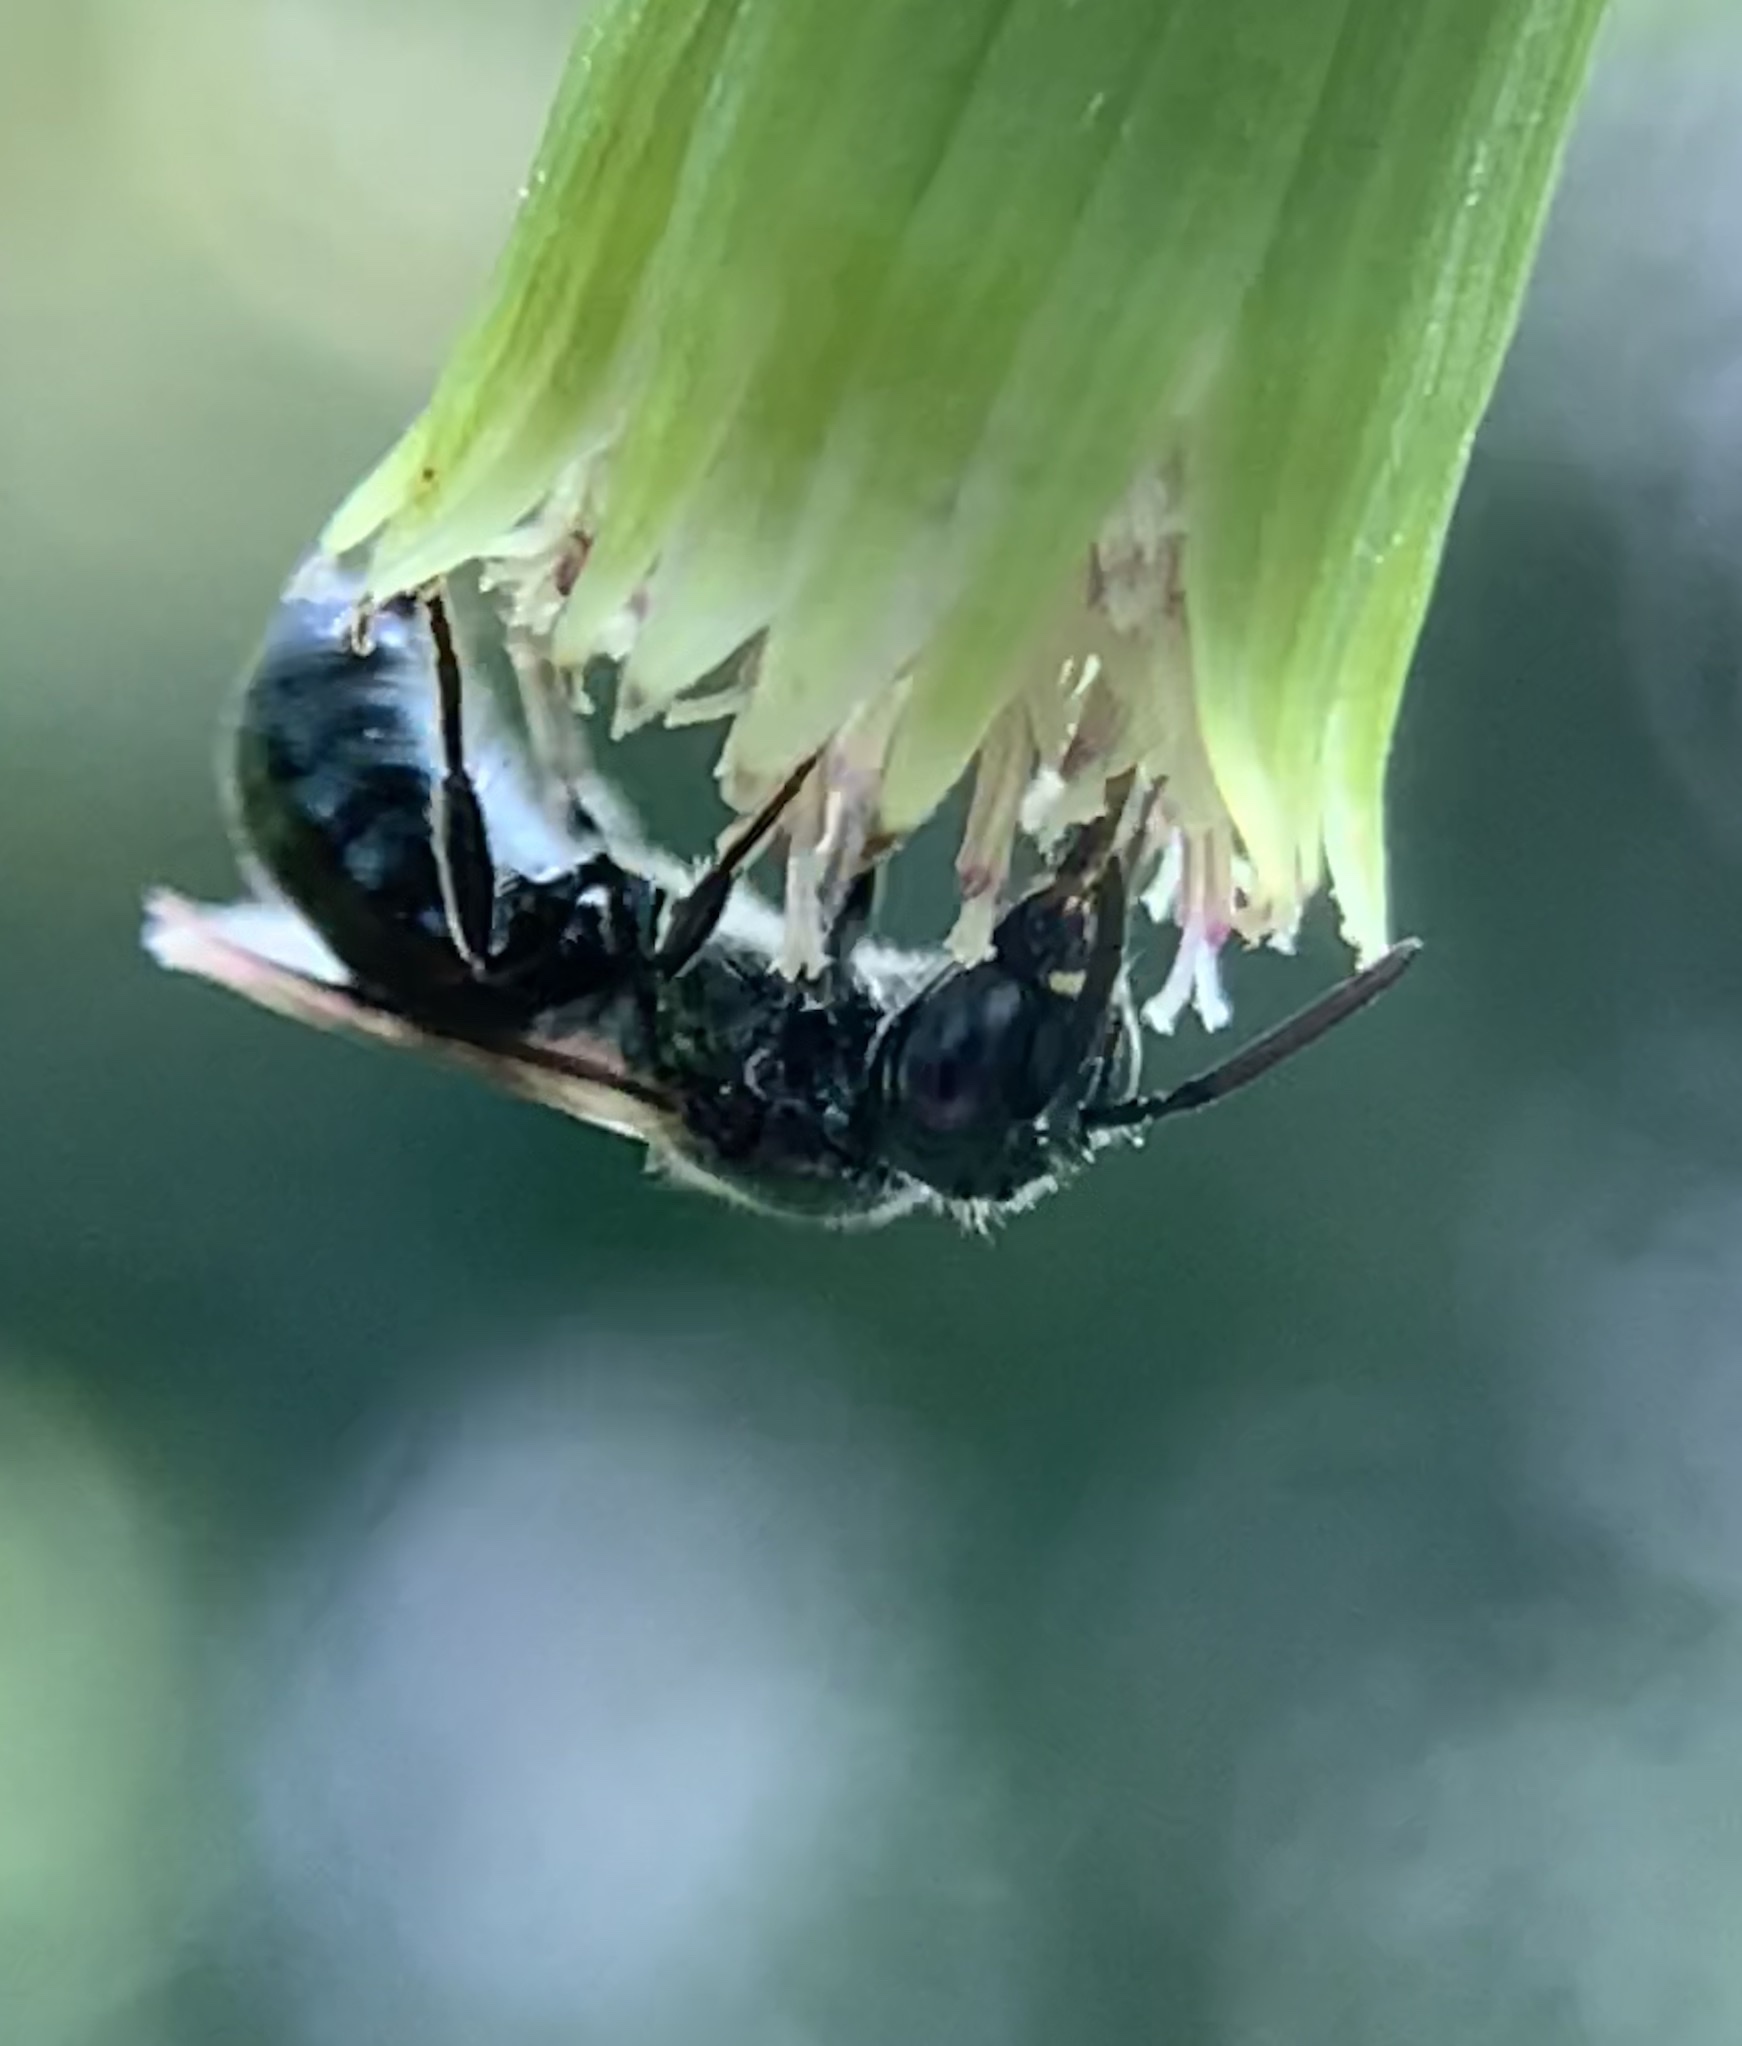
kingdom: Animalia
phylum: Arthropoda
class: Insecta
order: Hymenoptera
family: Apidae
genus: Zadontomerus
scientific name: Zadontomerus
